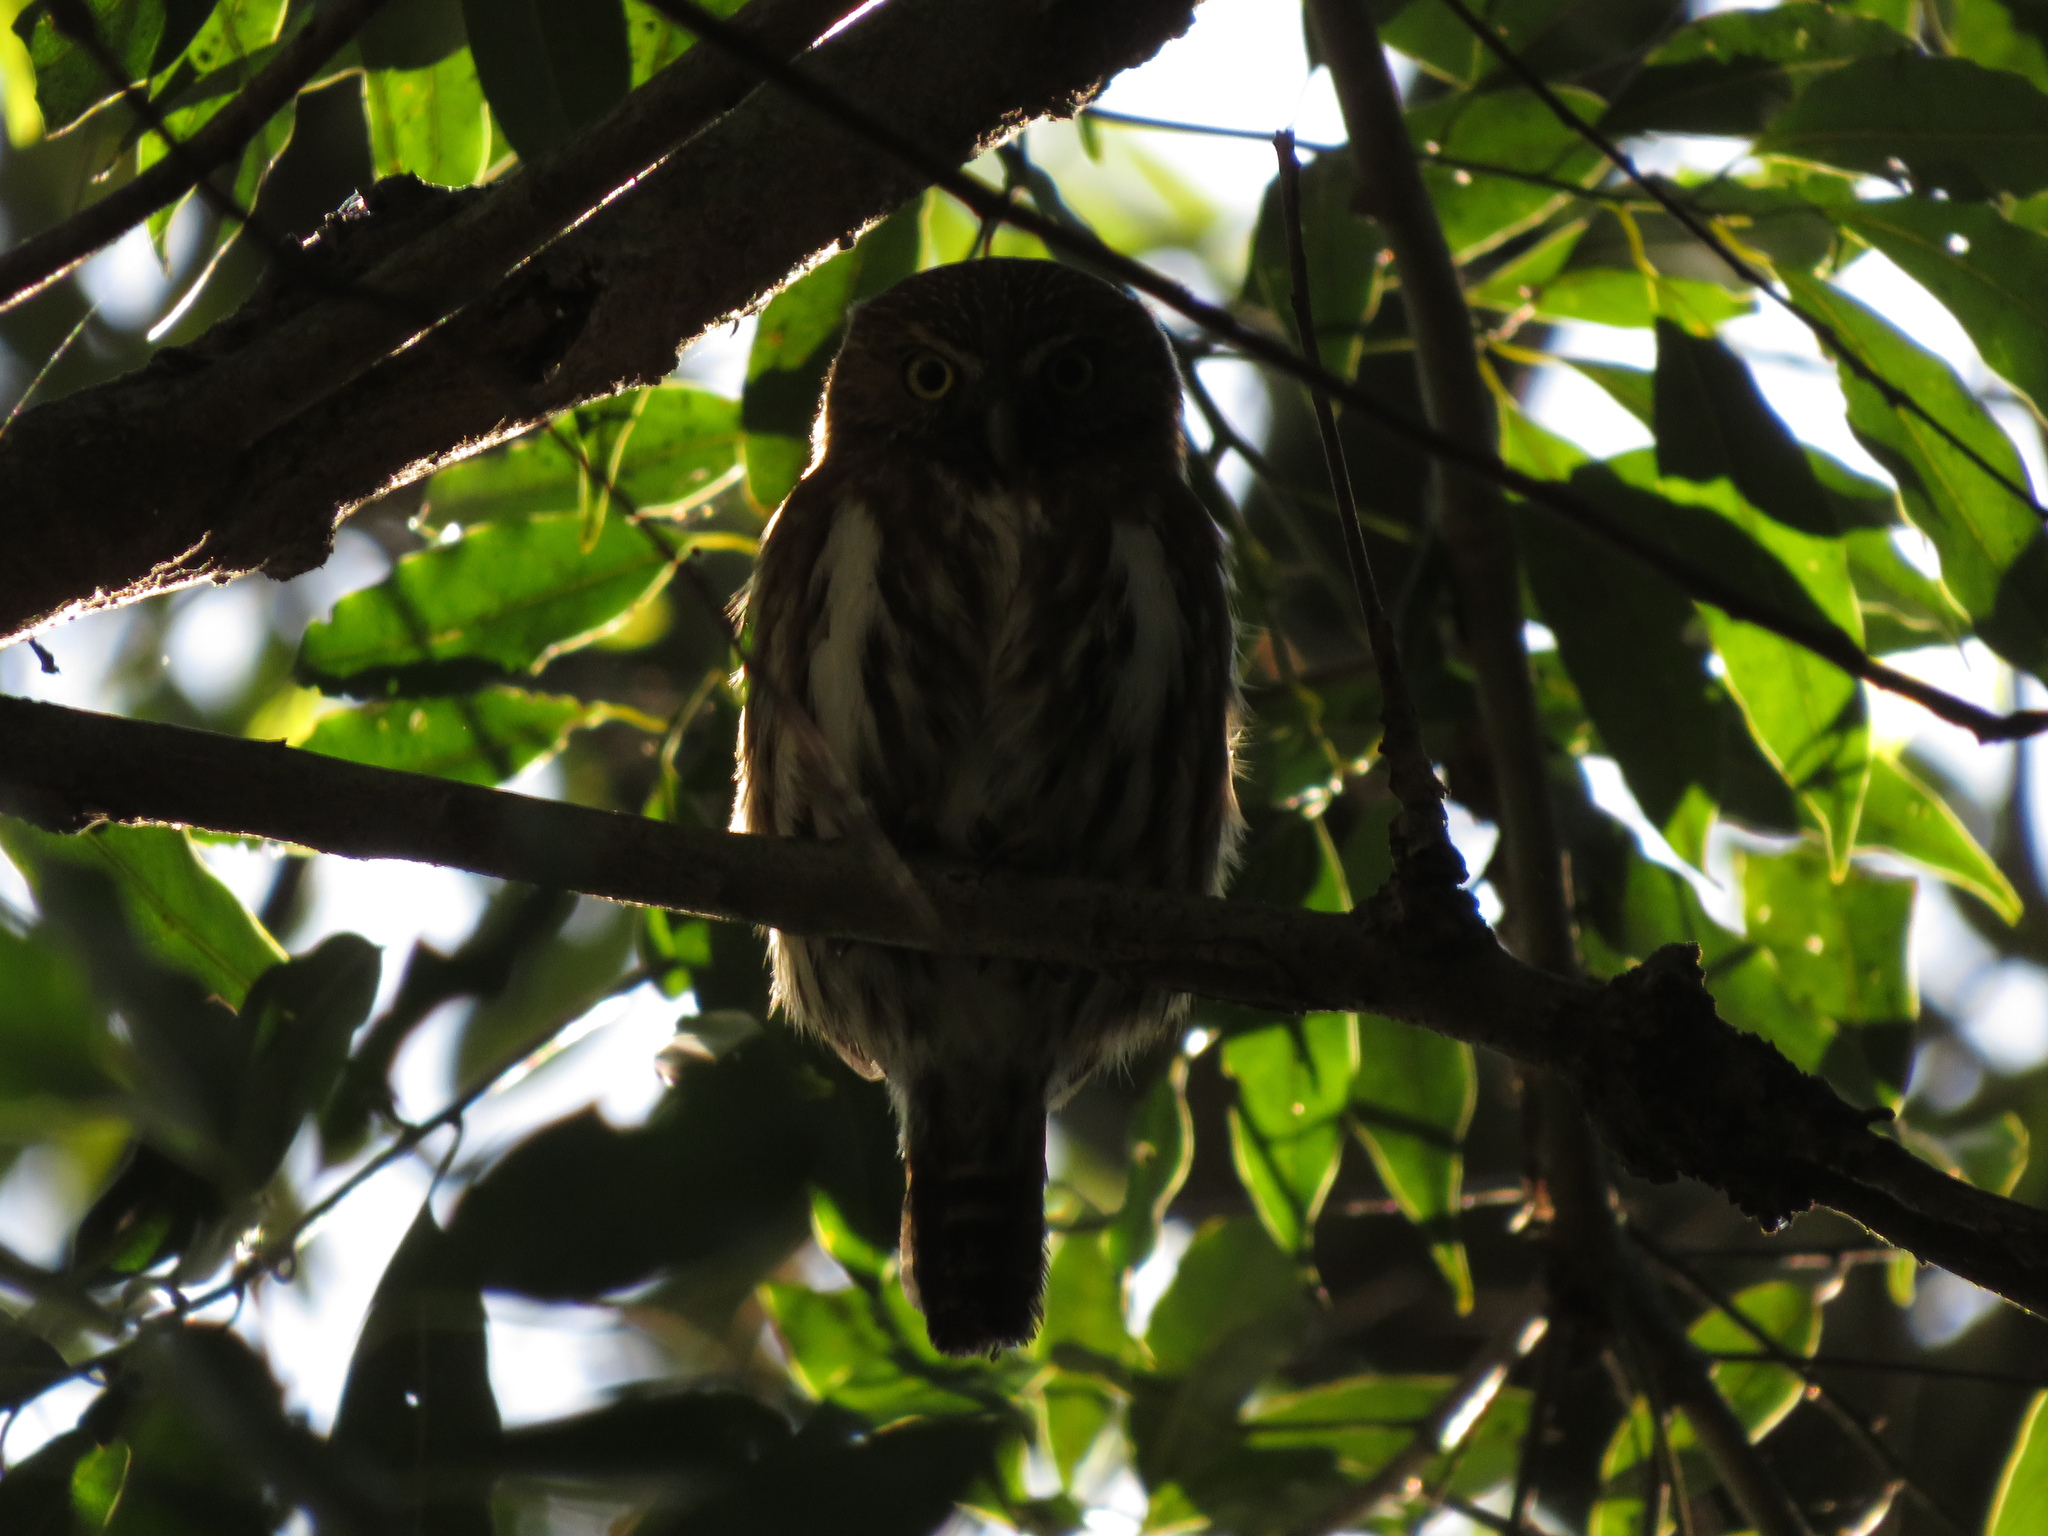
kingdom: Animalia
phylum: Chordata
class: Aves
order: Strigiformes
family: Strigidae
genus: Glaucidium
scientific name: Glaucidium brasilianum
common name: Ferruginous pygmy-owl
